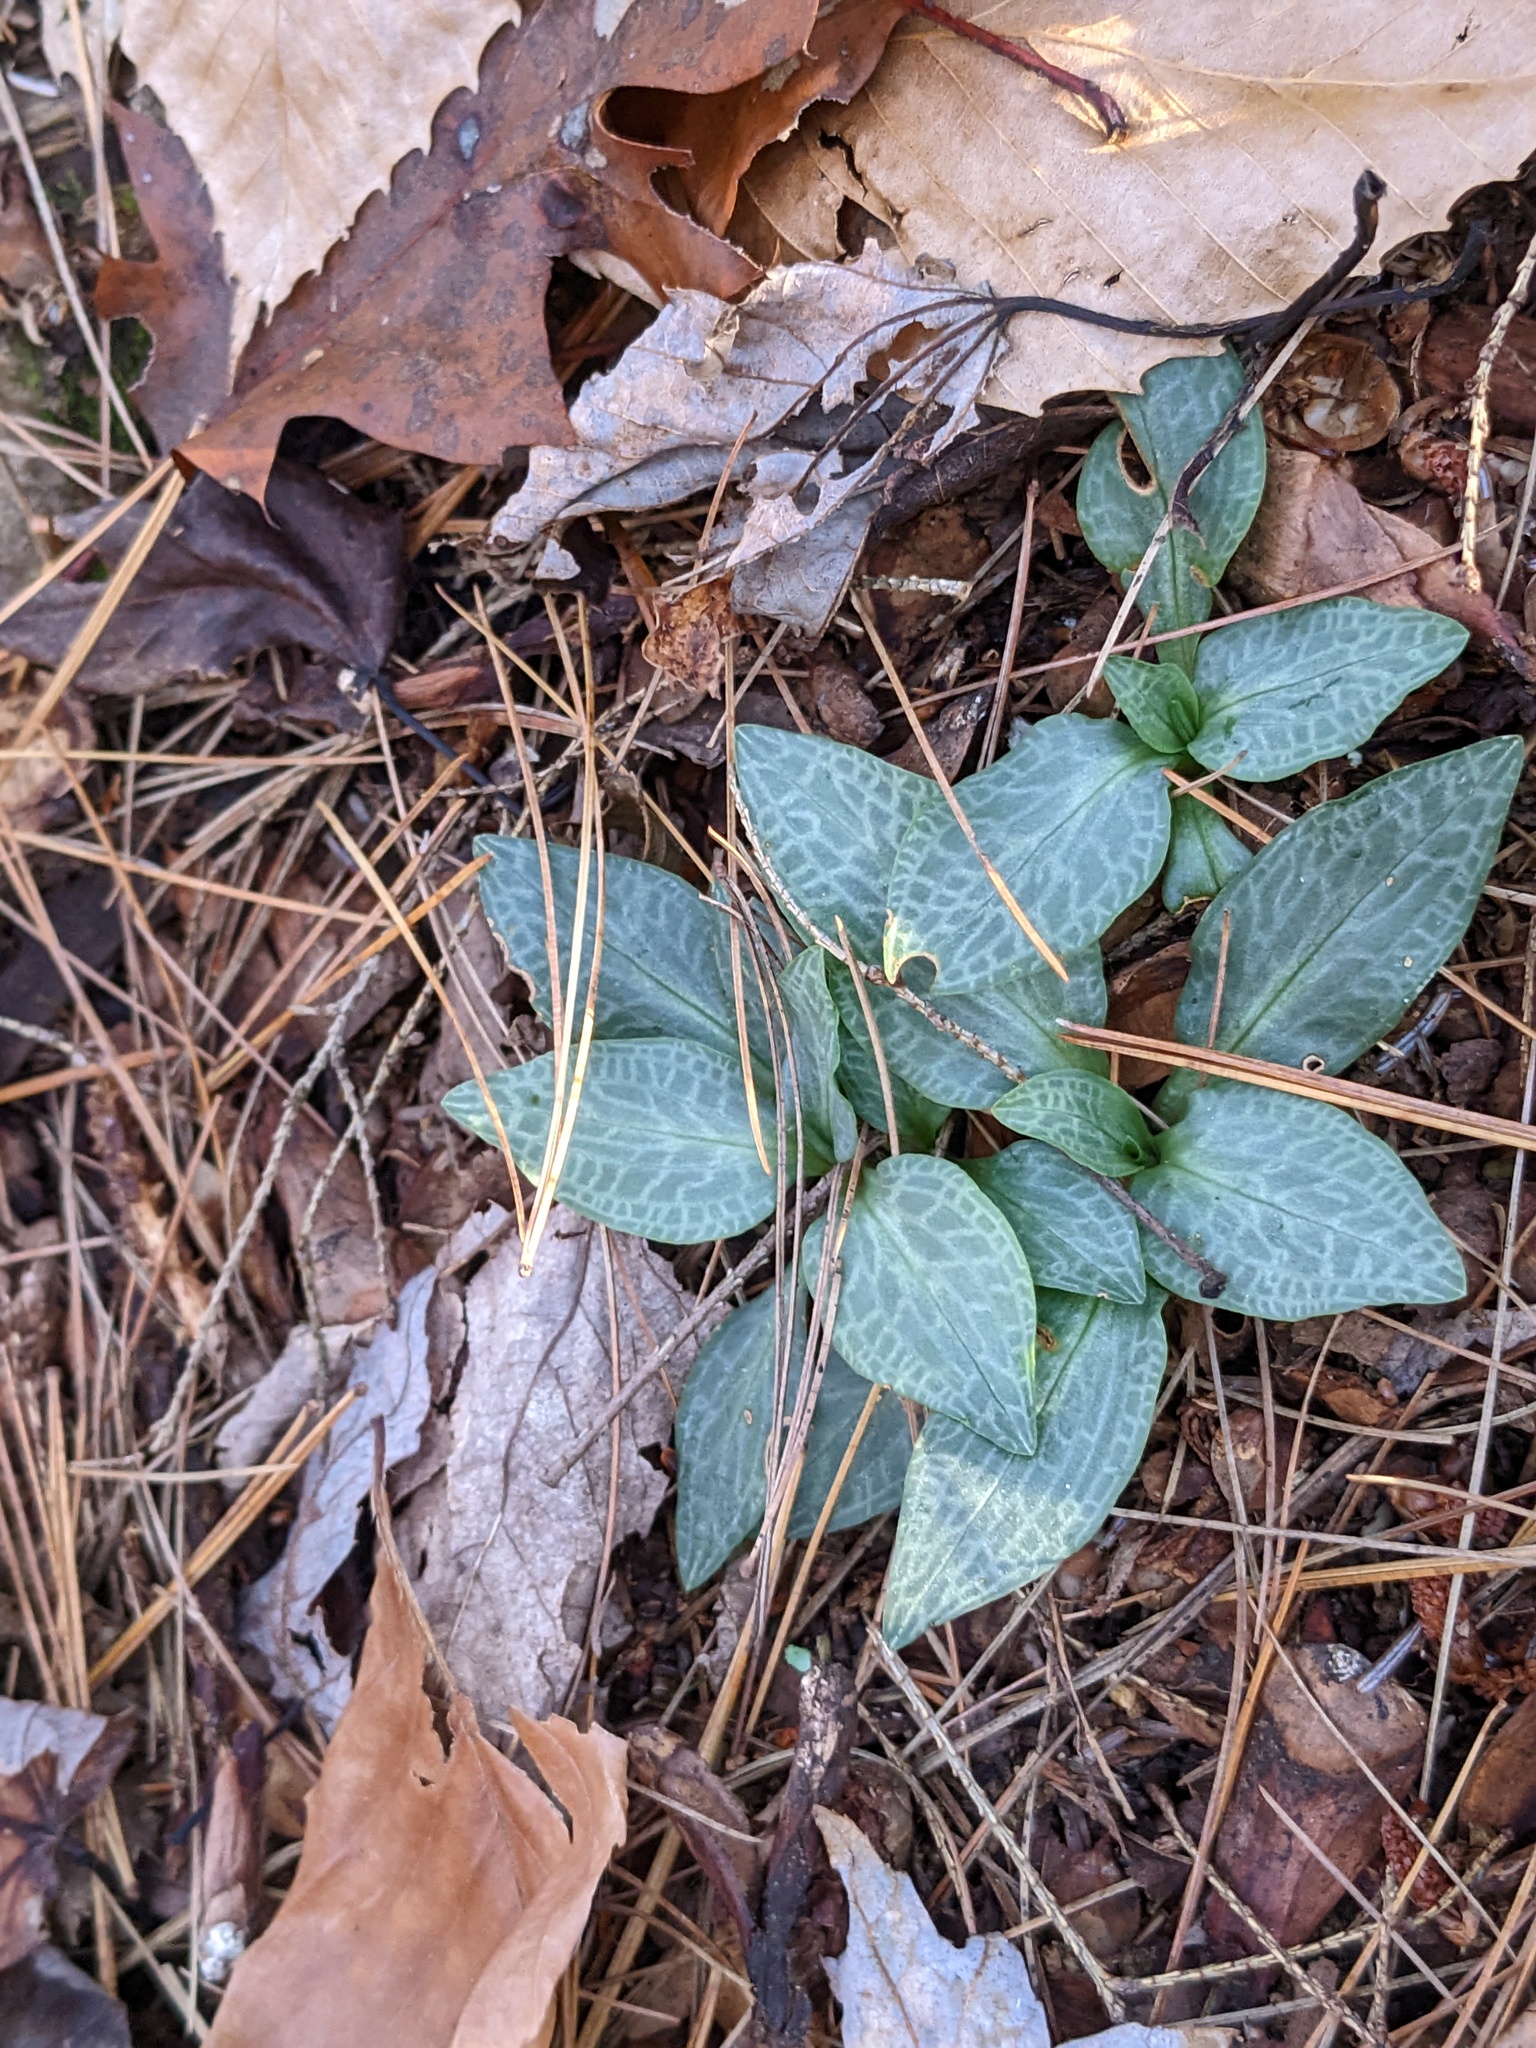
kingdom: Plantae
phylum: Tracheophyta
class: Liliopsida
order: Asparagales
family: Orchidaceae
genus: Goodyera
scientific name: Goodyera tesselata
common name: Checkered rattlesnake-plantain
